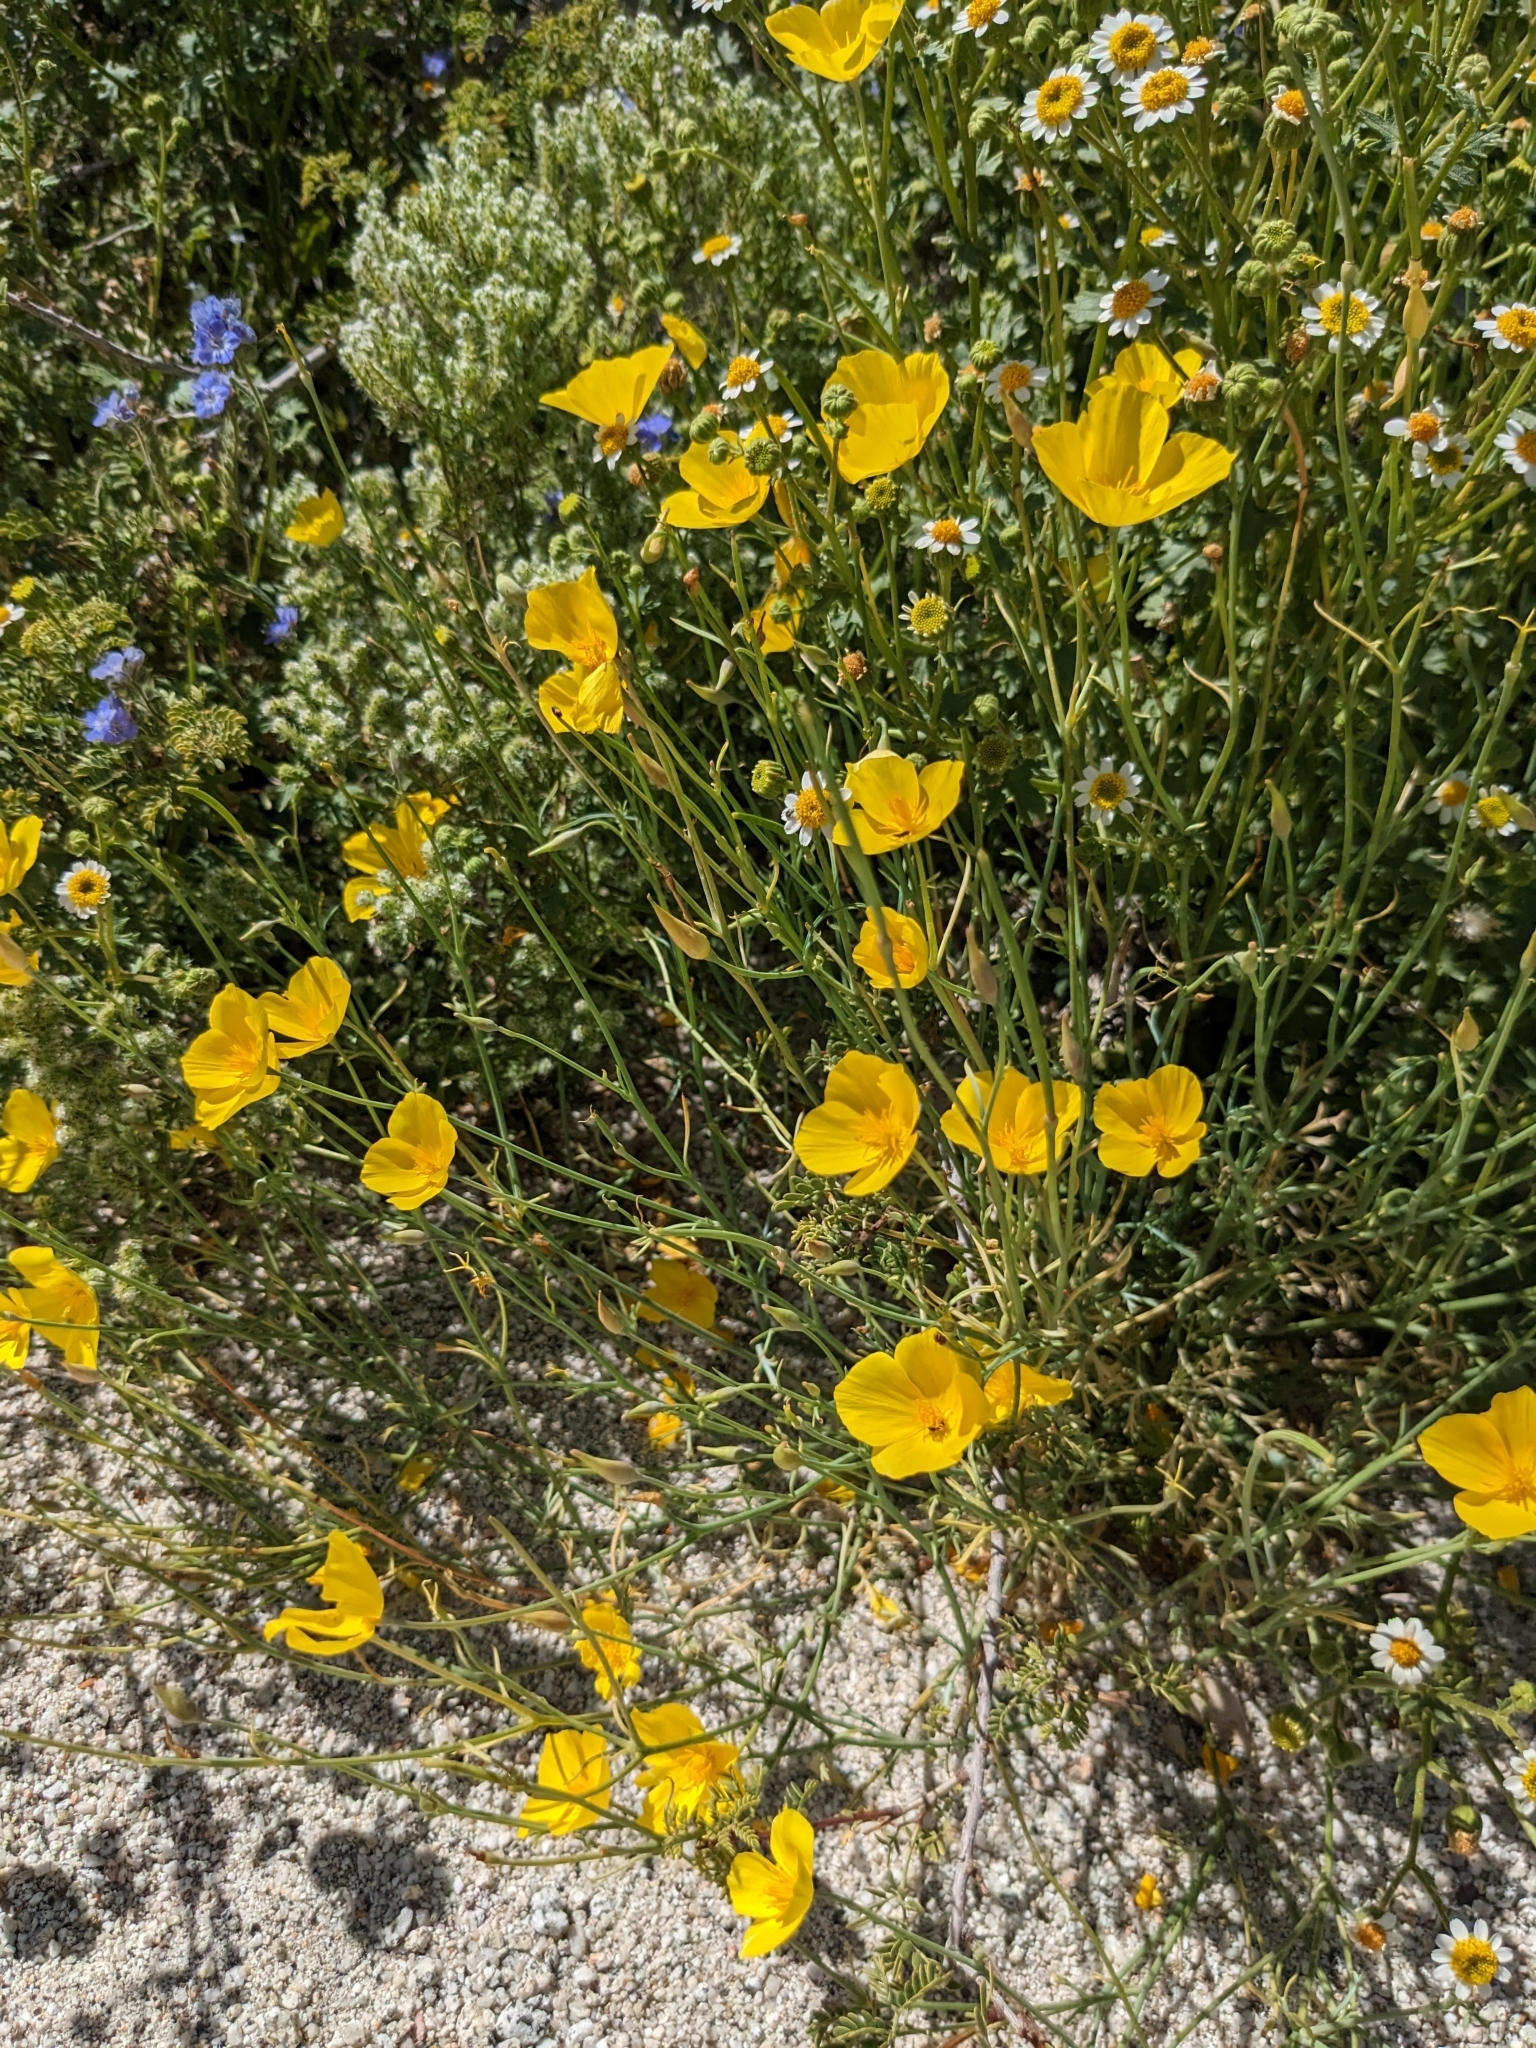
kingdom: Plantae
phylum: Tracheophyta
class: Magnoliopsida
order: Ranunculales
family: Papaveraceae
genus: Eschscholzia
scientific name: Eschscholzia parishii
